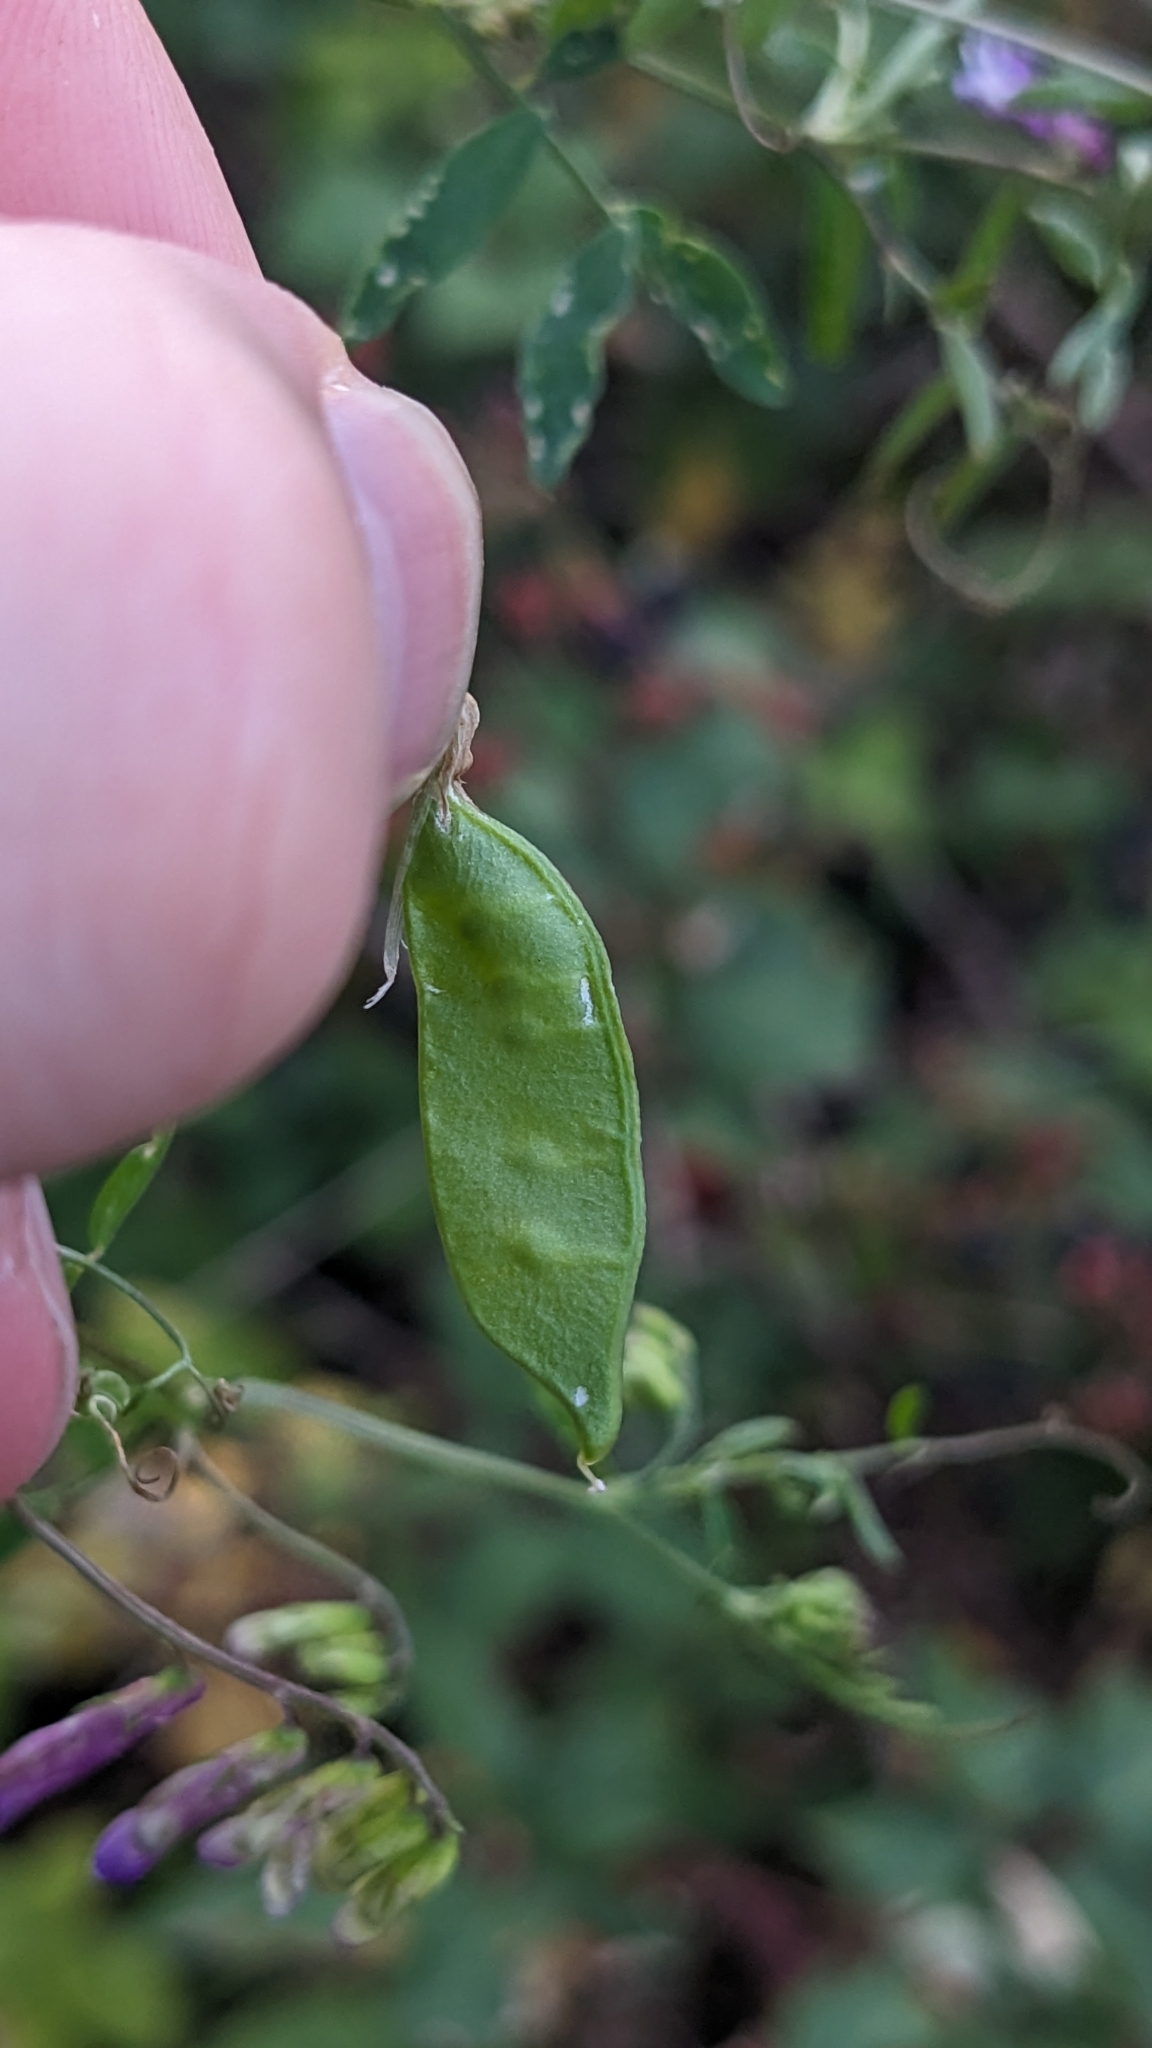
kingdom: Plantae
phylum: Tracheophyta
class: Magnoliopsida
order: Fabales
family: Fabaceae
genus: Vicia
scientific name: Vicia villosa
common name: Fodder vetch
